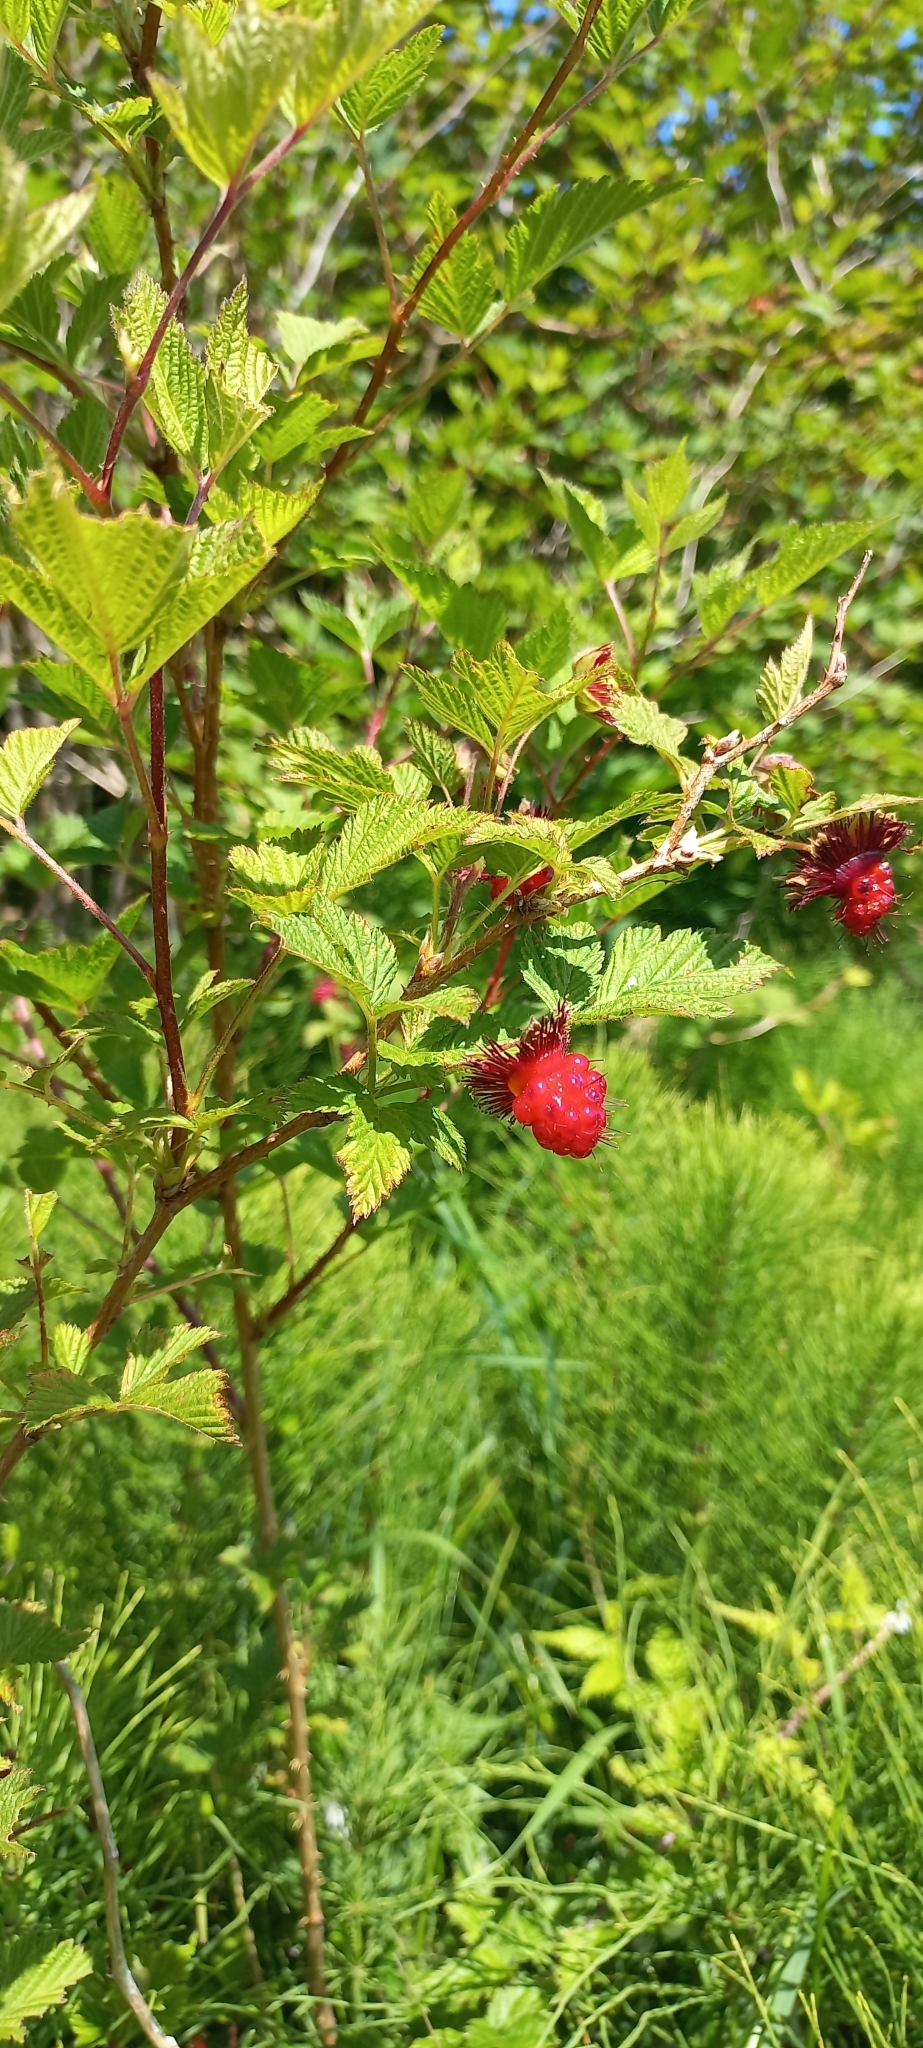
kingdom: Plantae
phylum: Tracheophyta
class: Magnoliopsida
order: Rosales
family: Rosaceae
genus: Rubus
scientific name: Rubus spectabilis
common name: Salmonberry
